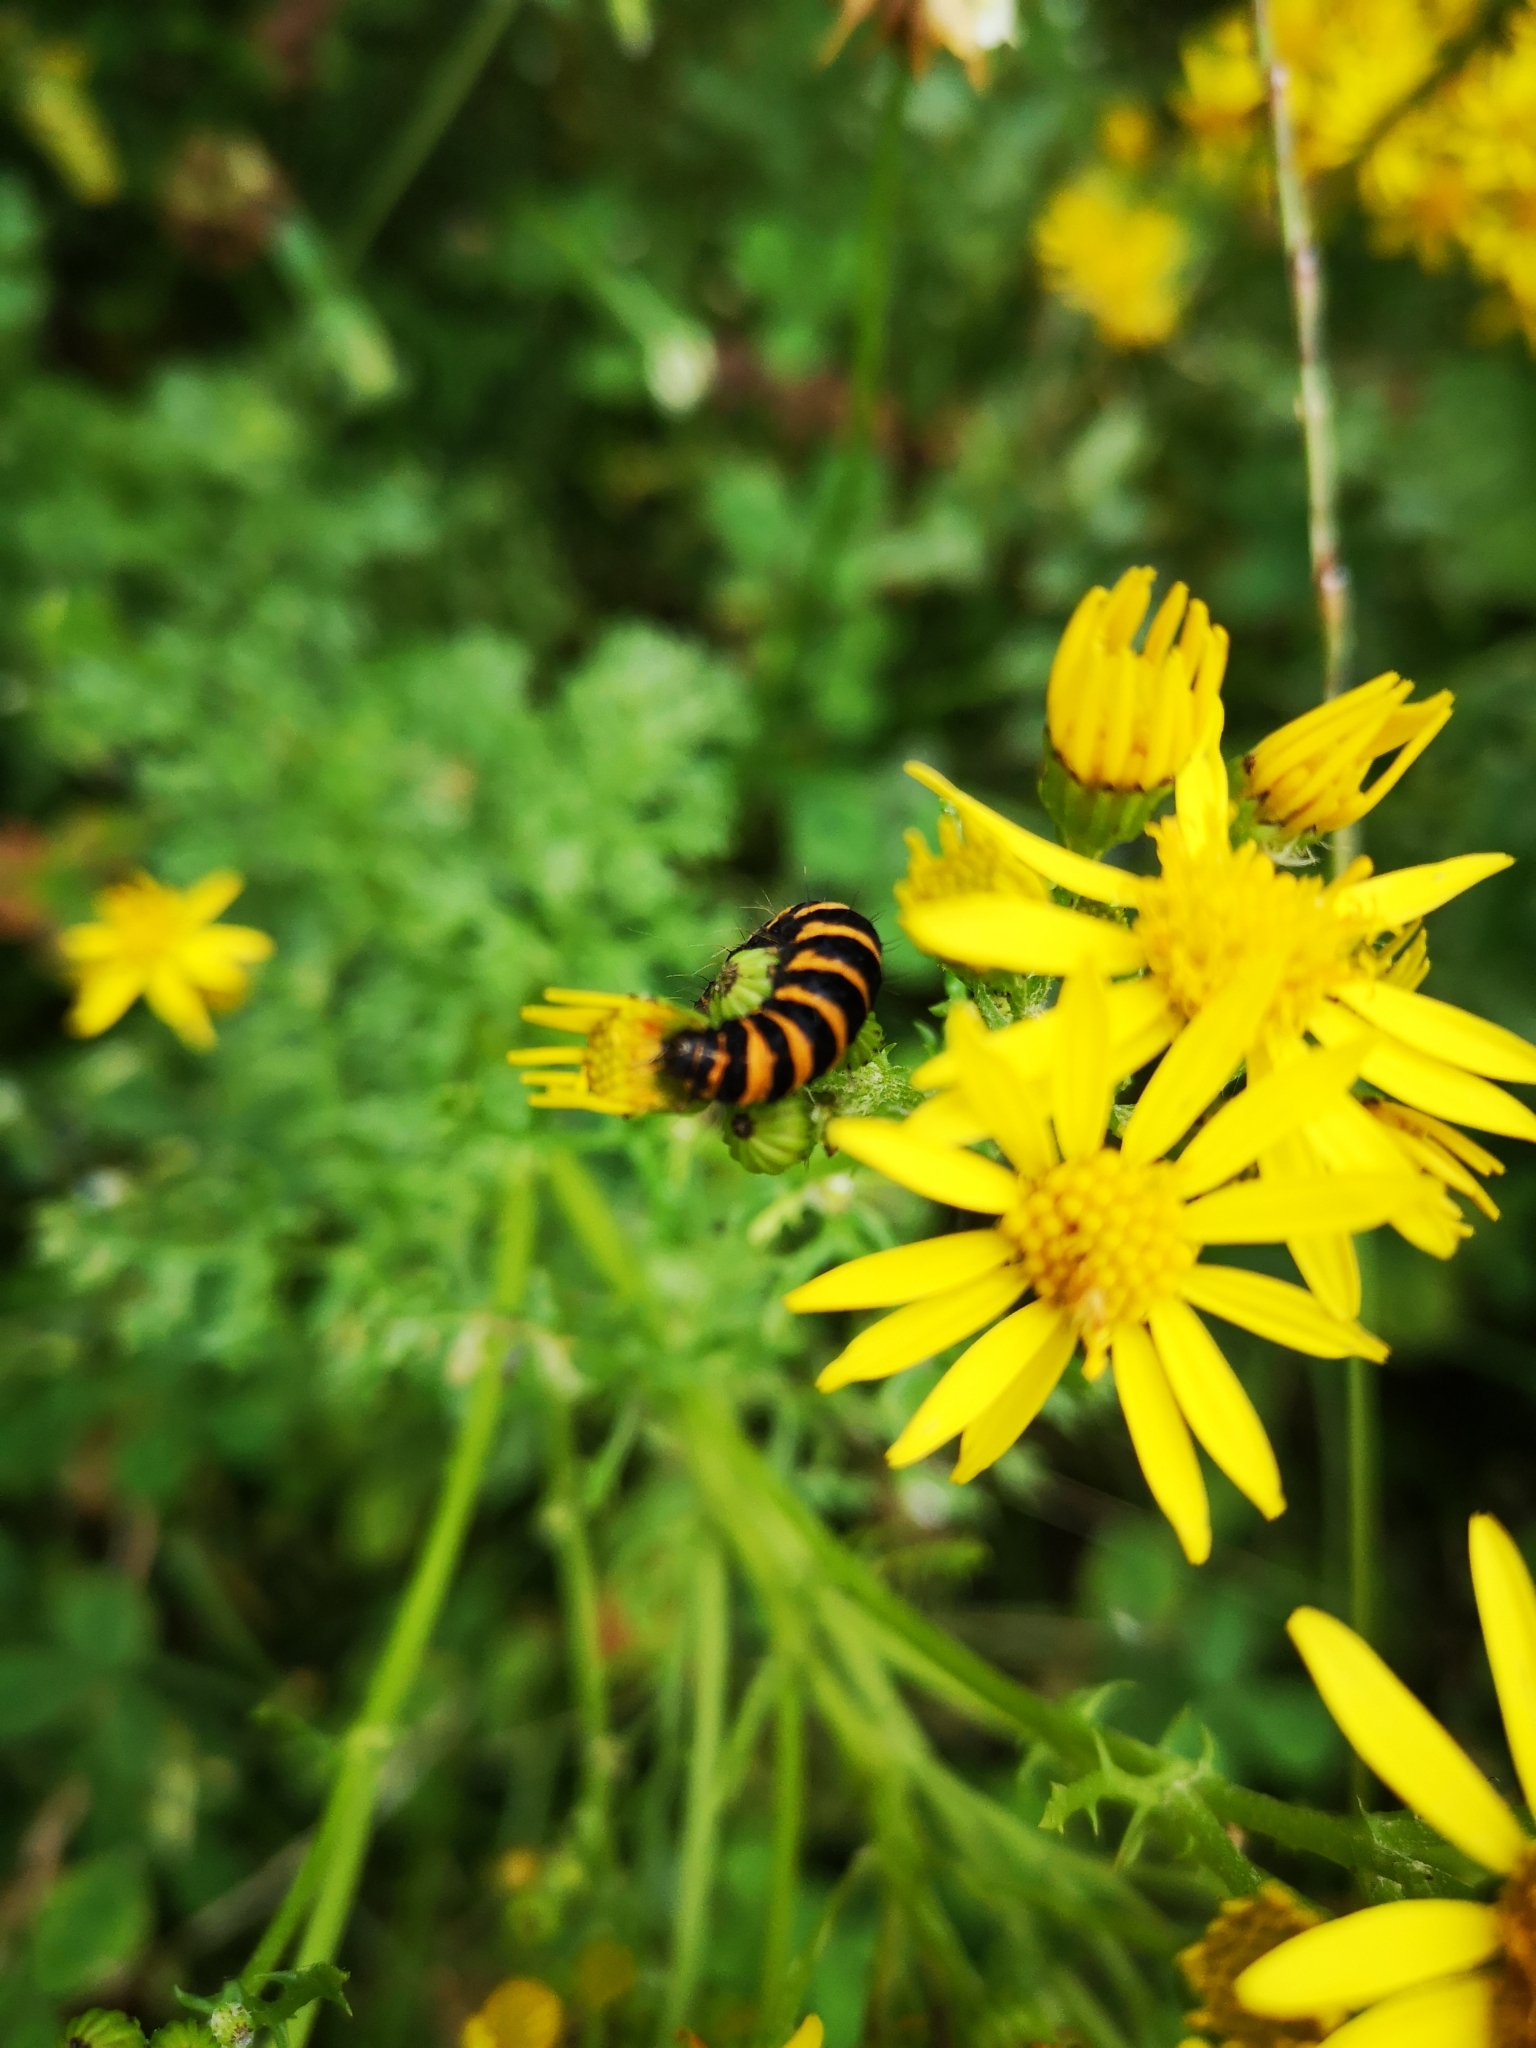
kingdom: Animalia
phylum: Arthropoda
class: Insecta
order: Lepidoptera
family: Erebidae
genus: Tyria
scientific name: Tyria jacobaeae
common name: Cinnabar
